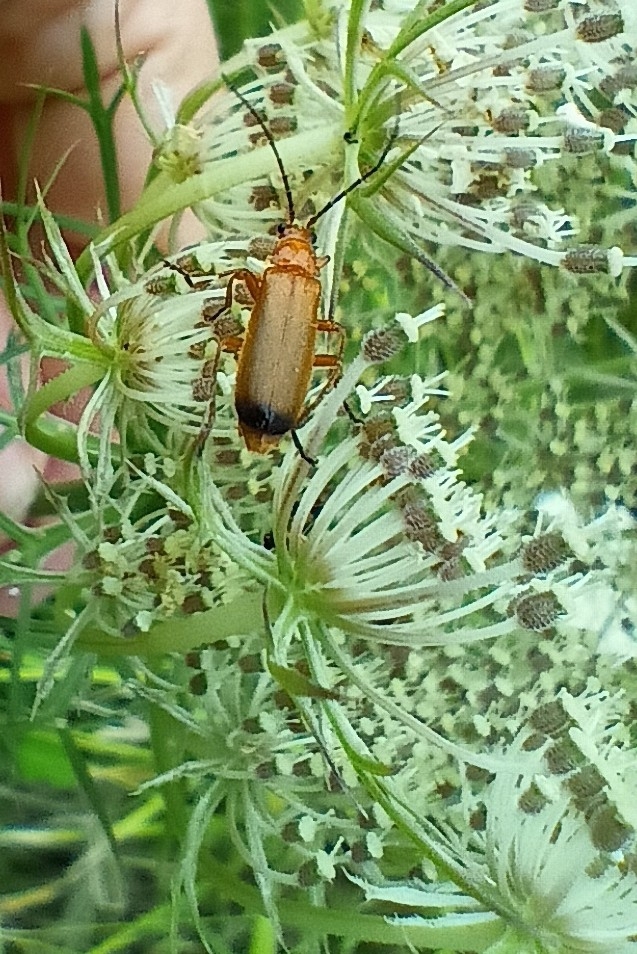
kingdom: Animalia
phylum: Arthropoda
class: Insecta
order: Coleoptera
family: Cantharidae
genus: Rhagonycha
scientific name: Rhagonycha fulva
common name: Common red soldier beetle
